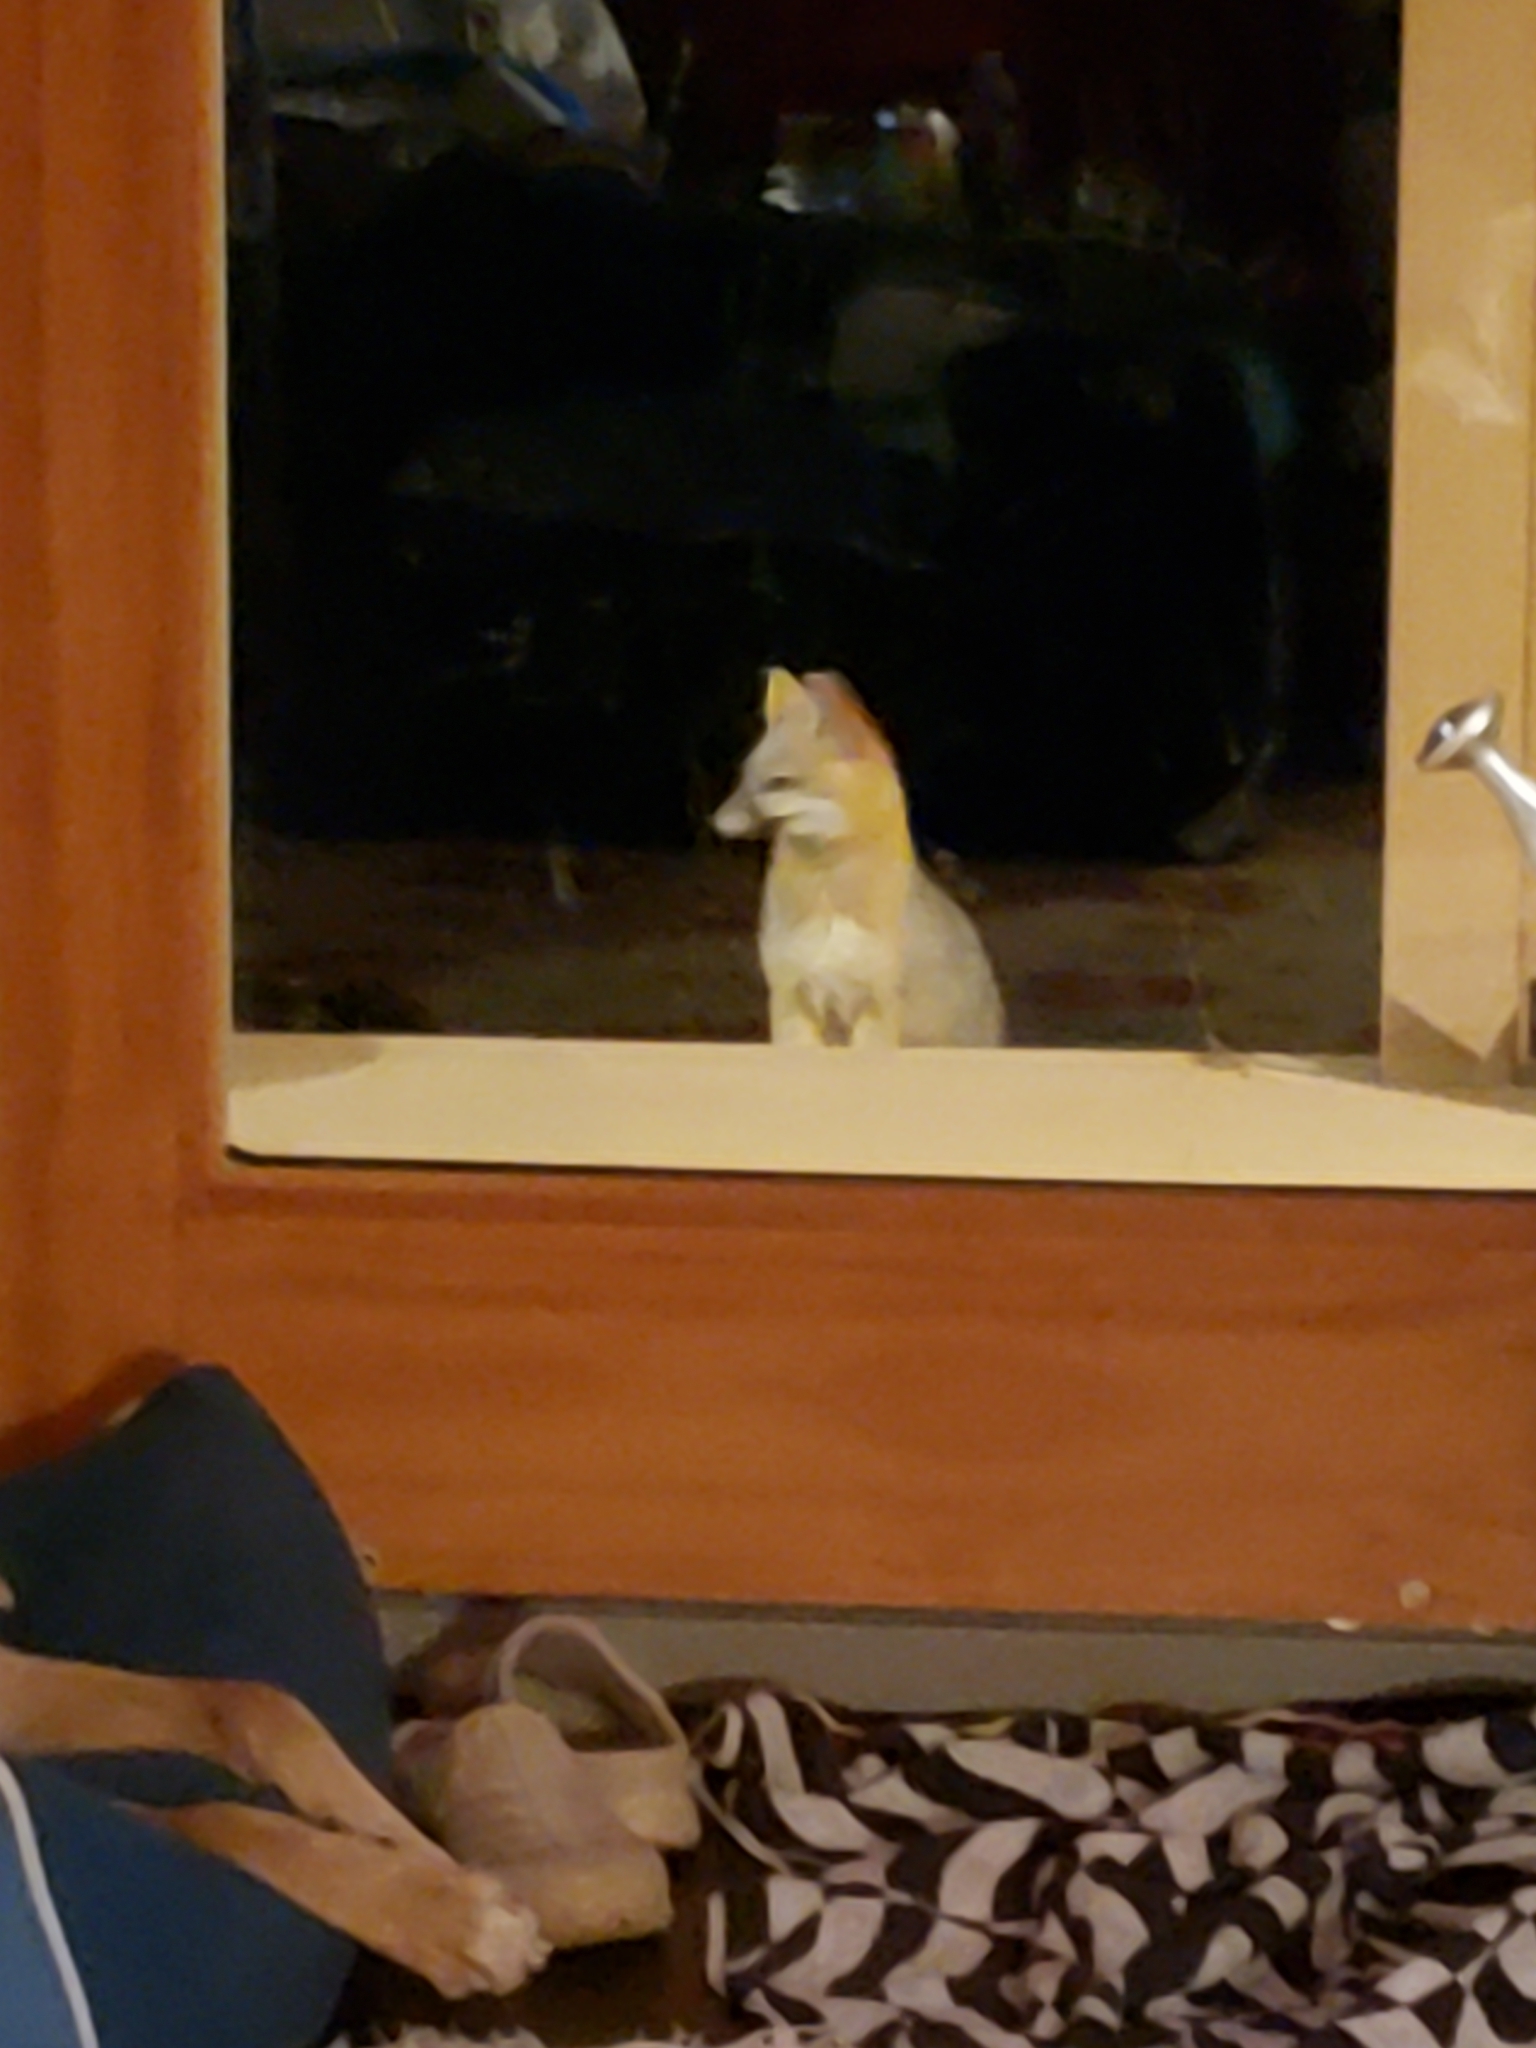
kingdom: Animalia
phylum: Chordata
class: Mammalia
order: Carnivora
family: Canidae
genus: Urocyon
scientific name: Urocyon cinereoargenteus
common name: Gray fox
